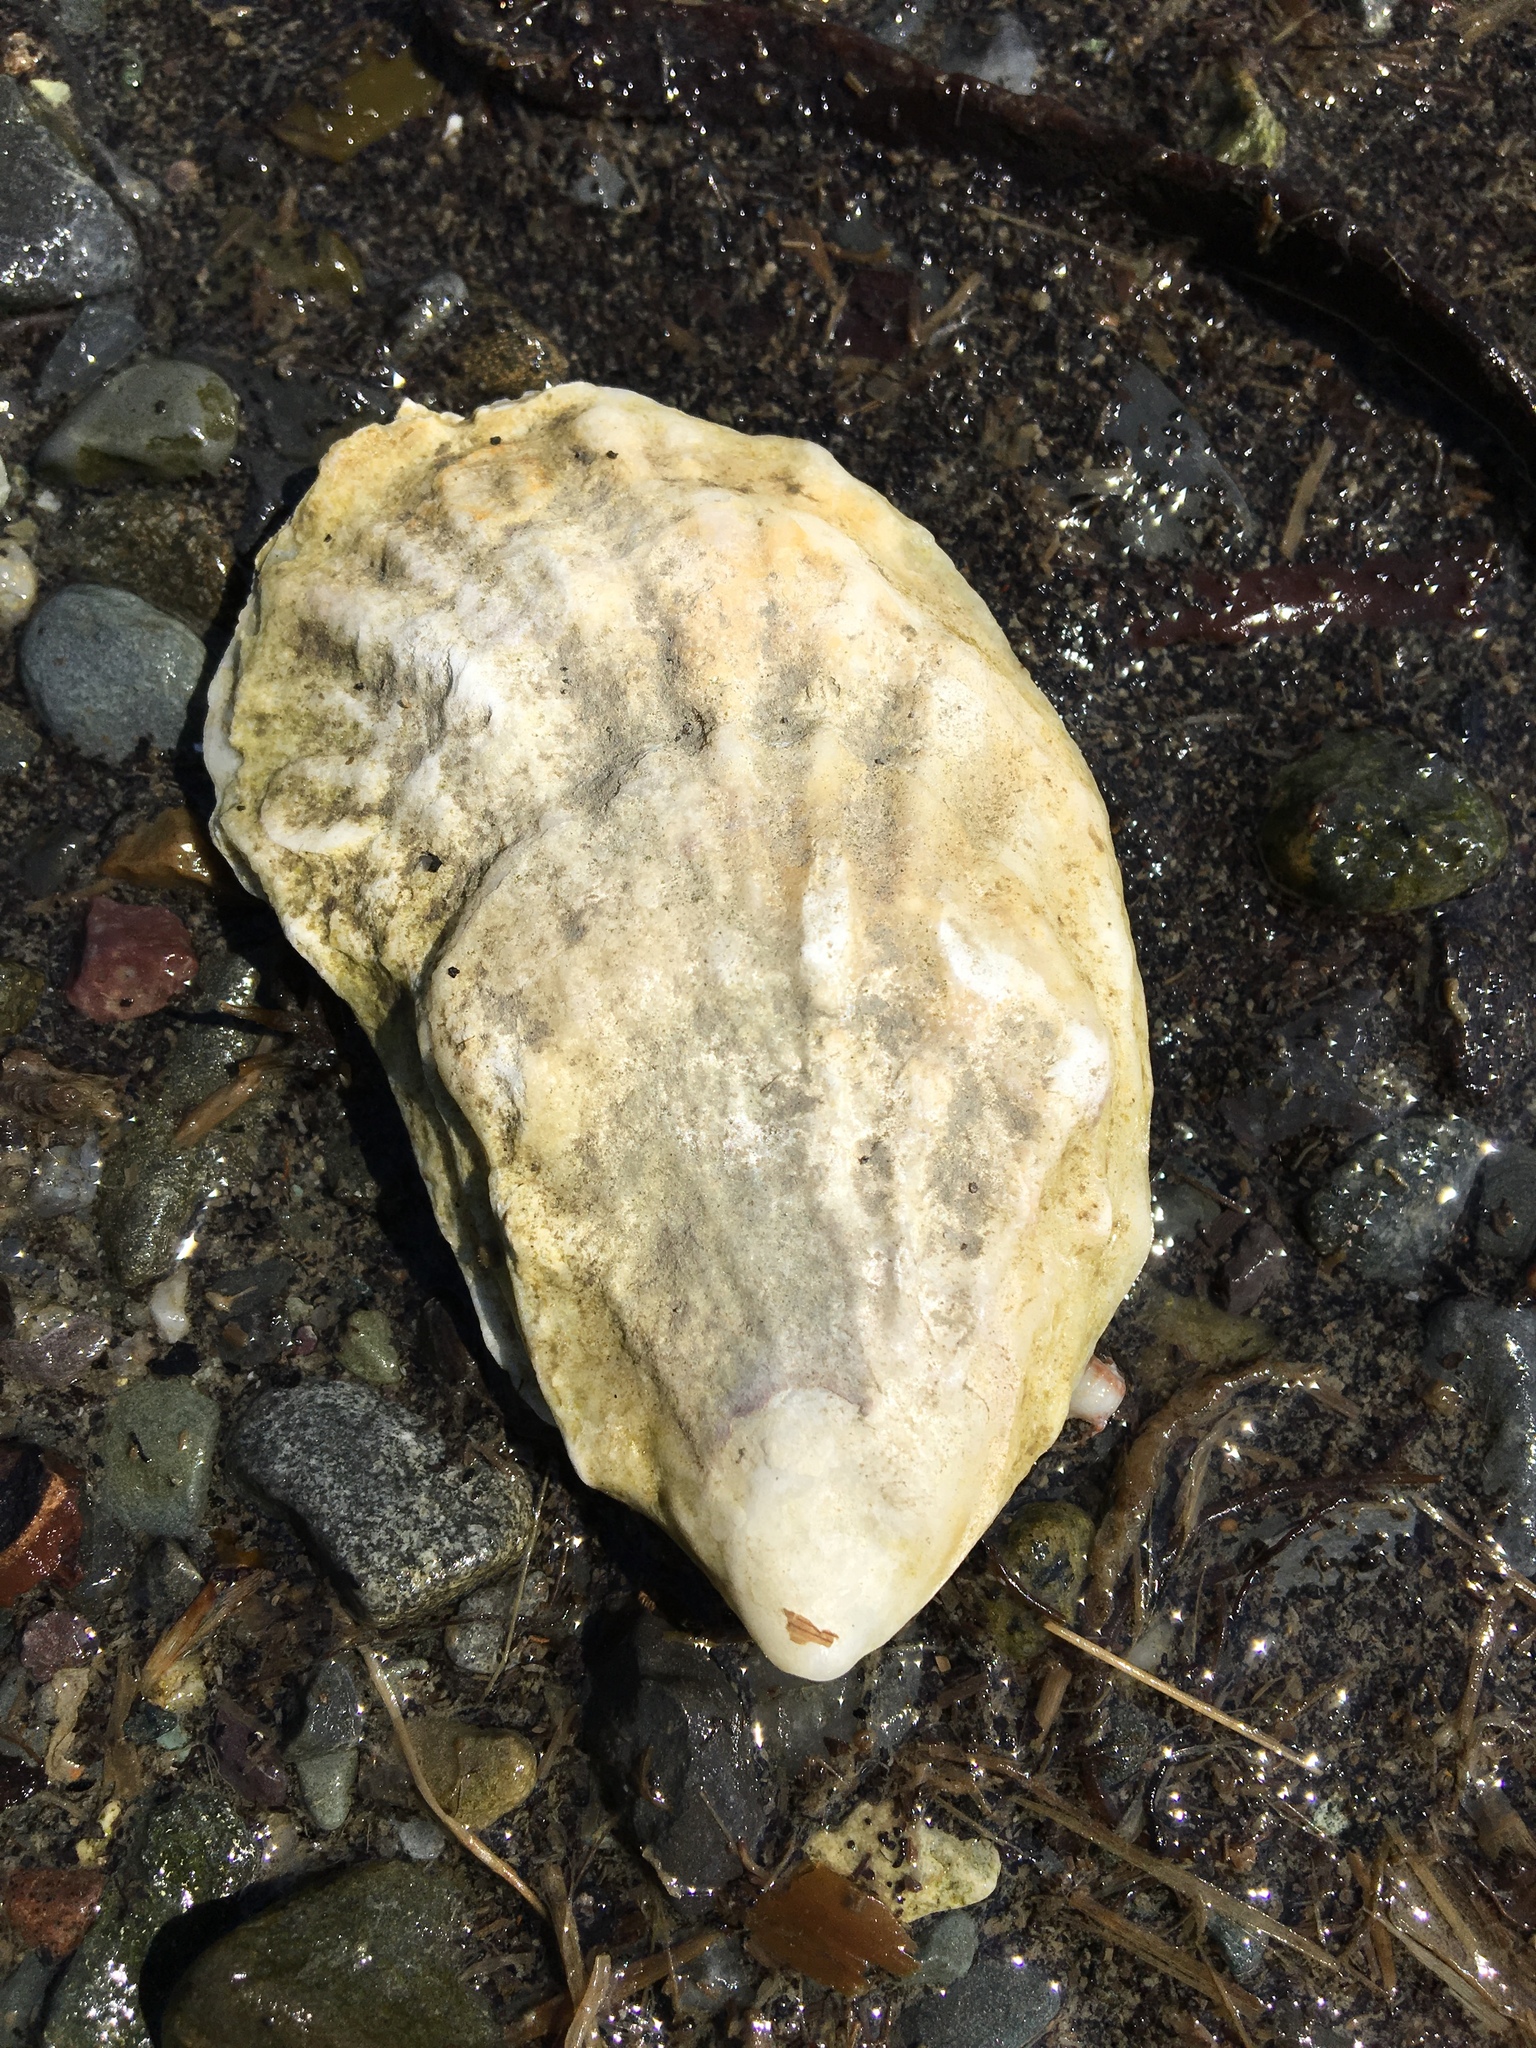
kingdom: Animalia
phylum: Mollusca
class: Bivalvia
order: Ostreida
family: Ostreidae
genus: Crassostrea
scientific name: Crassostrea virginica
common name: American oyster
